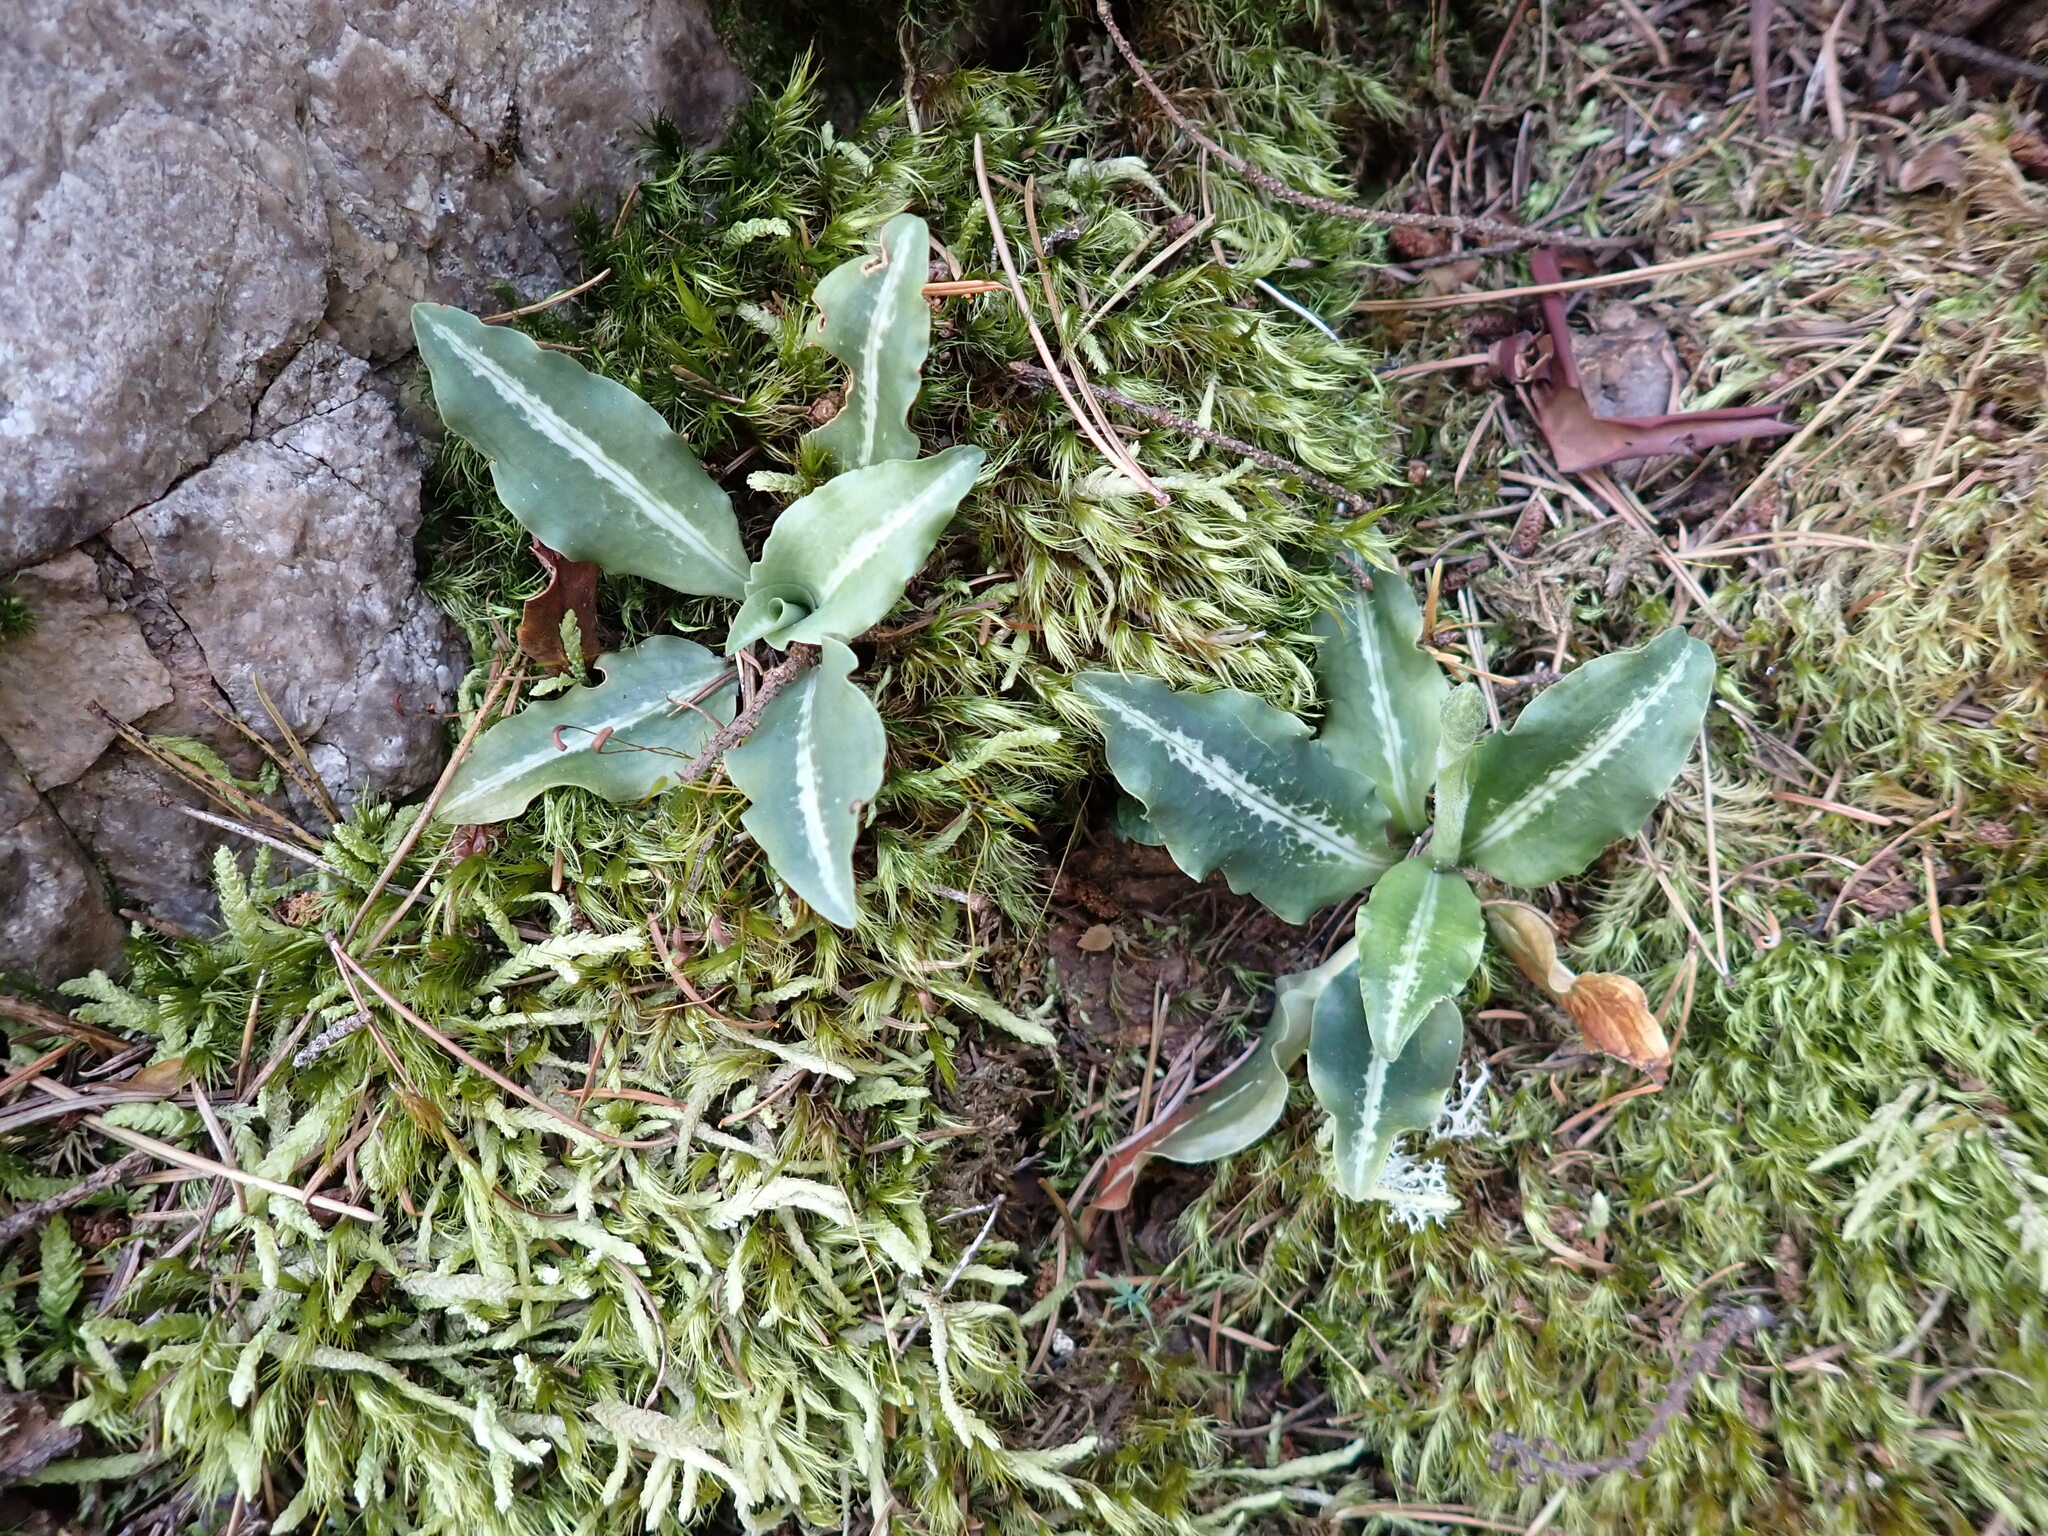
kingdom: Plantae
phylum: Tracheophyta
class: Liliopsida
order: Asparagales
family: Orchidaceae
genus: Goodyera
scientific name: Goodyera oblongifolia
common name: Giant rattlesnake-plantain
